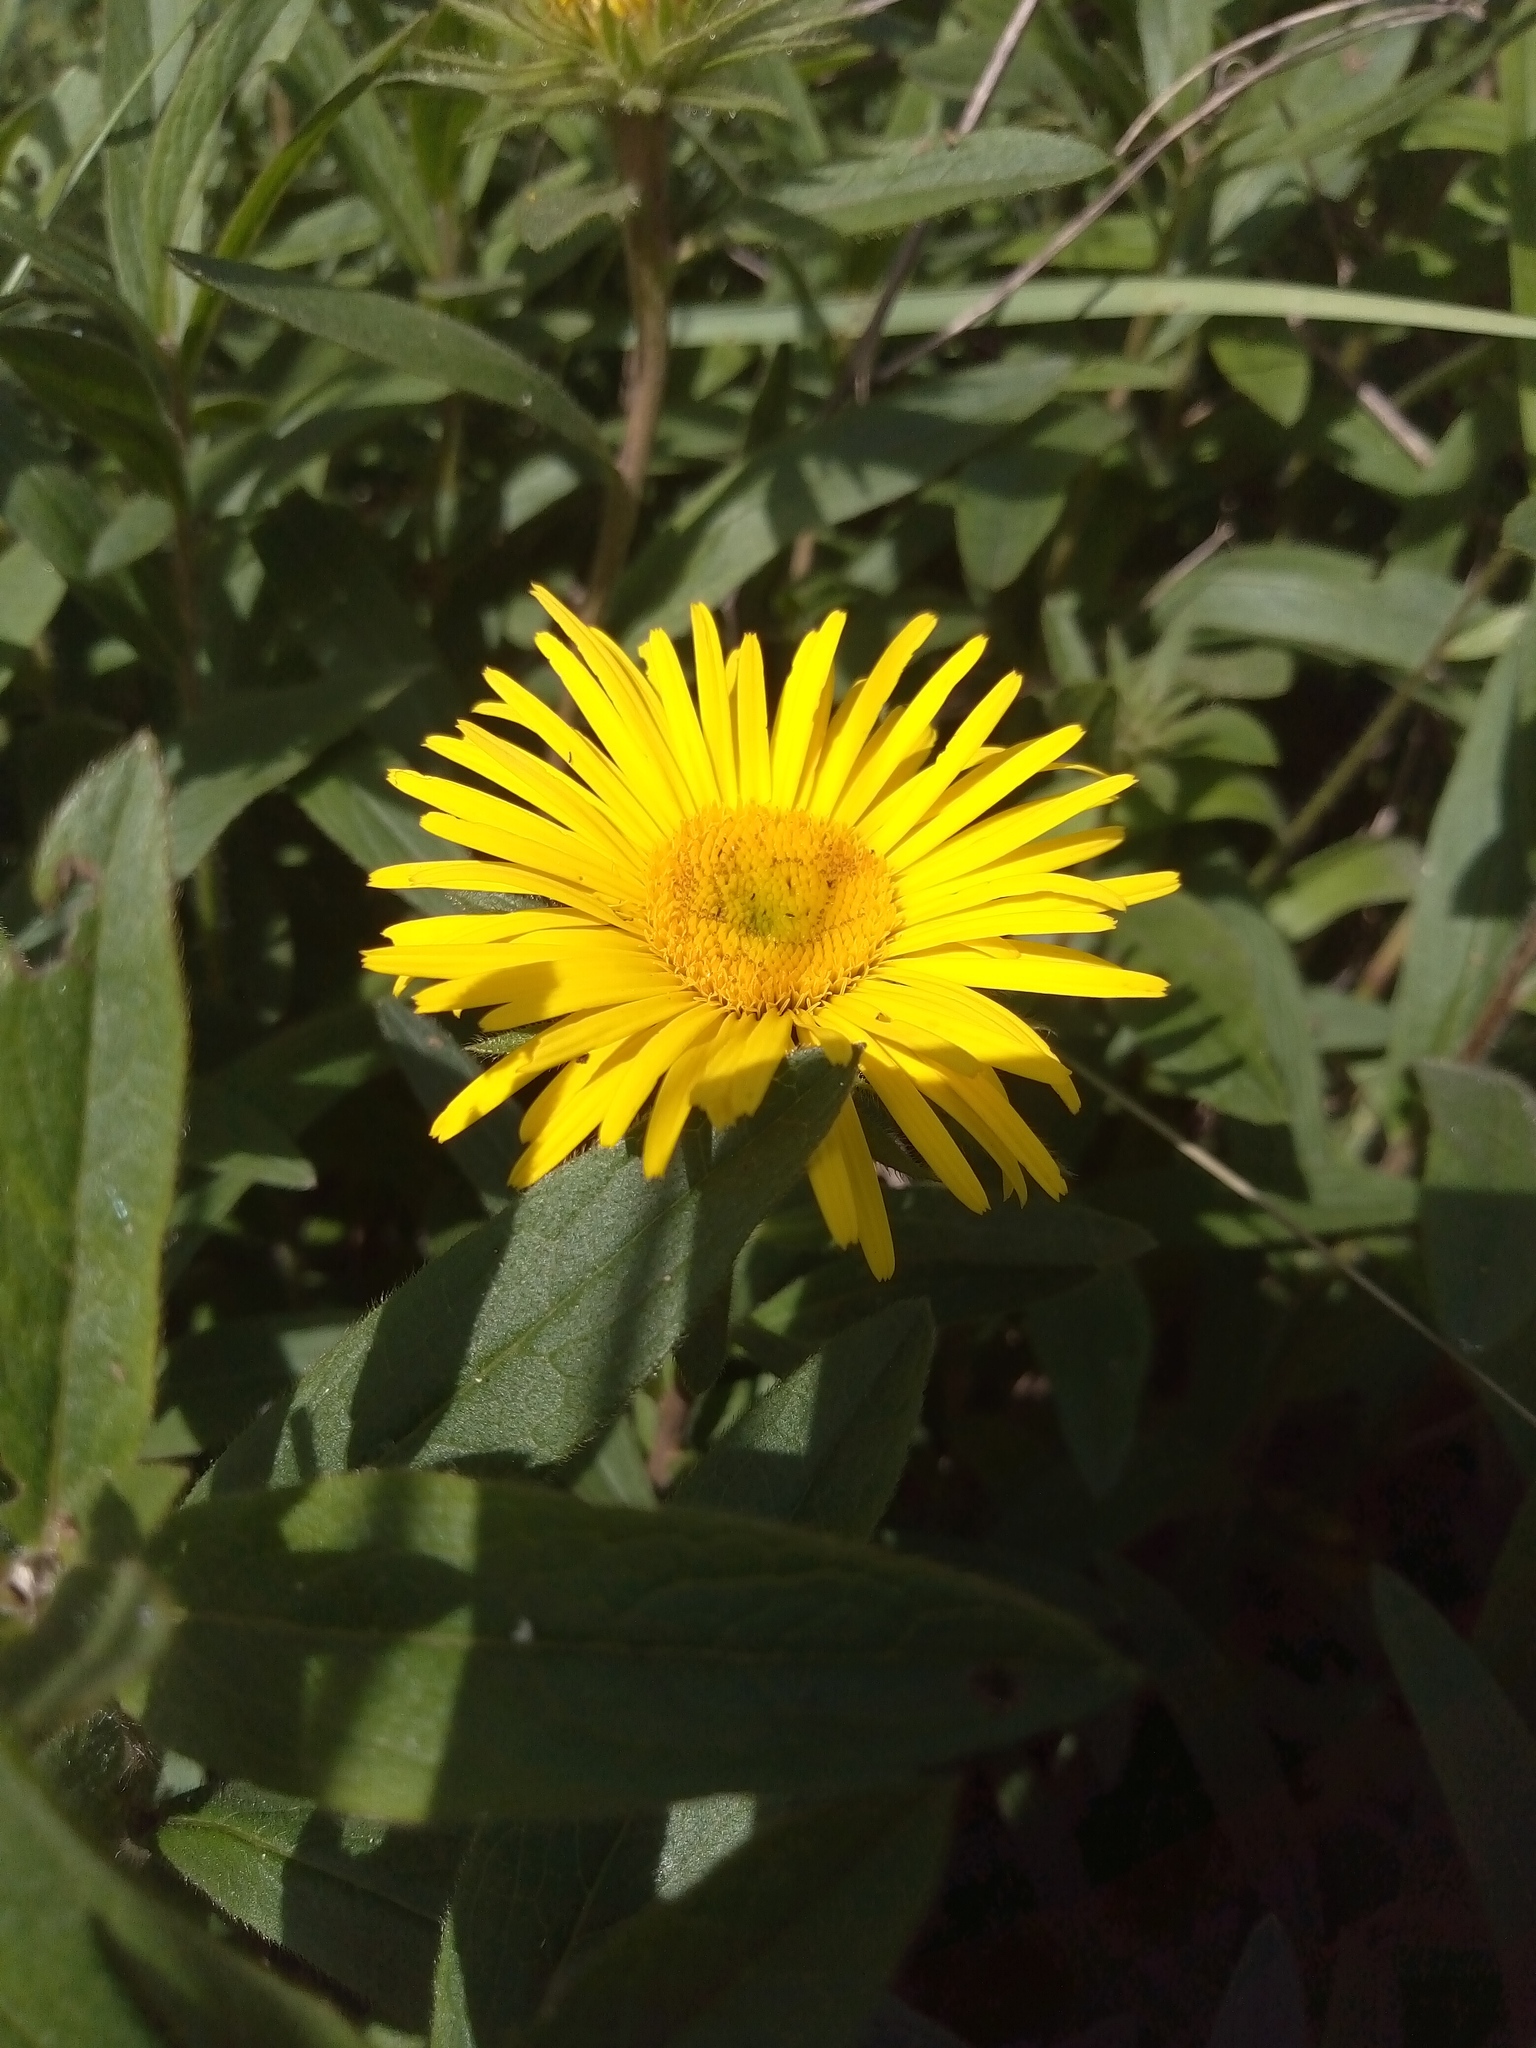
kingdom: Plantae
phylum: Tracheophyta
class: Magnoliopsida
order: Asterales
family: Asteraceae
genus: Pentanema
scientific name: Pentanema hirtum
